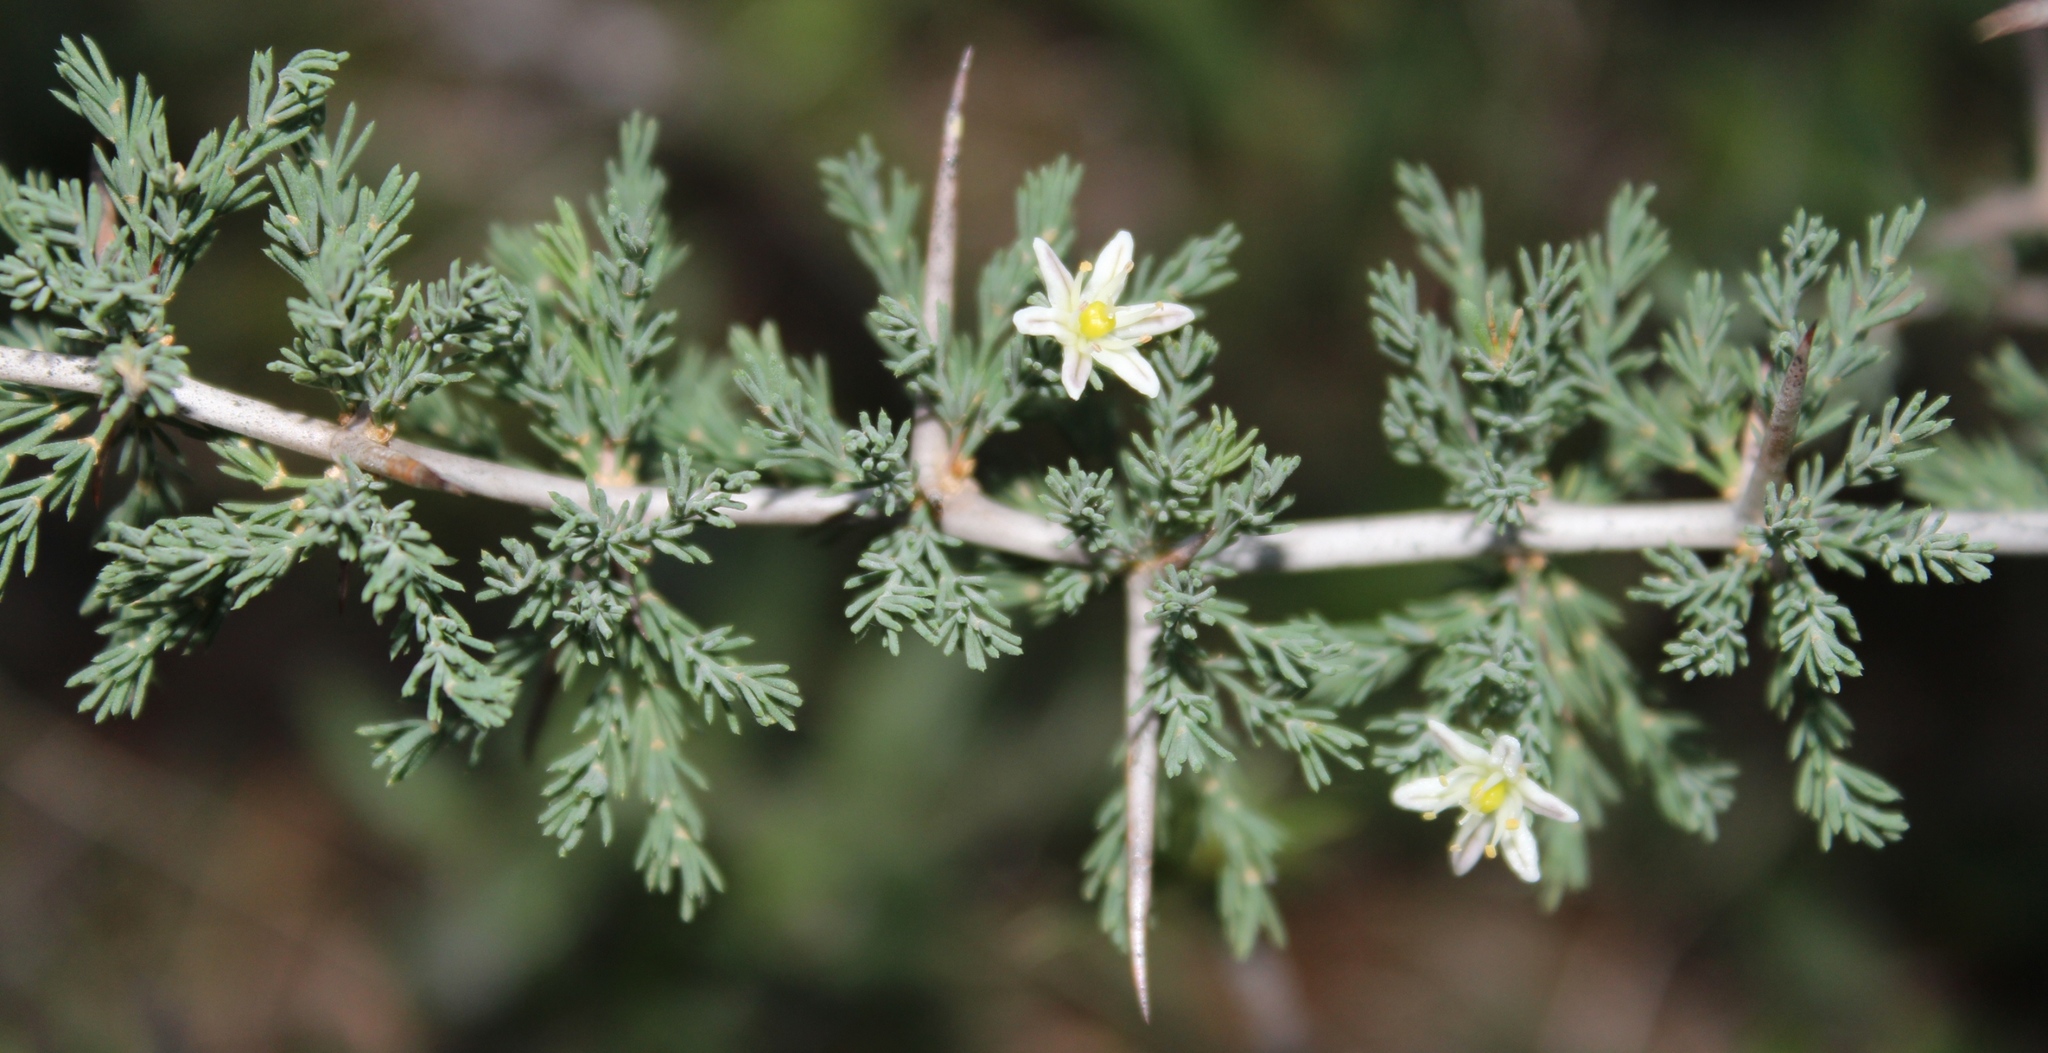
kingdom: Plantae
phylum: Tracheophyta
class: Liliopsida
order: Asparagales
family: Asparagaceae
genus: Asparagus
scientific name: Asparagus capensis
